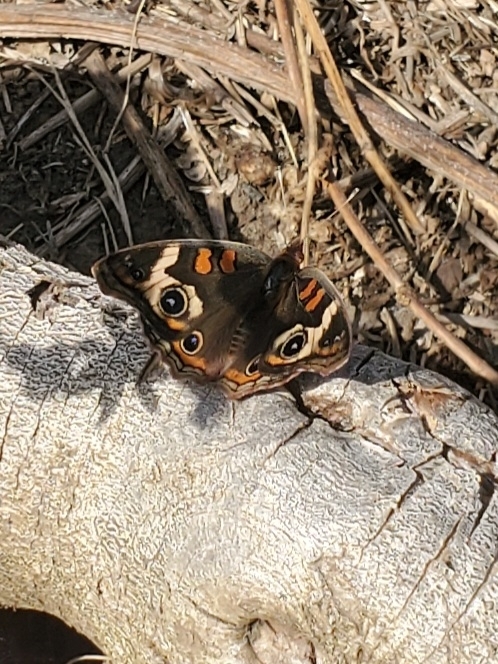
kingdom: Animalia
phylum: Arthropoda
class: Insecta
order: Lepidoptera
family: Nymphalidae
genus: Junonia
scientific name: Junonia coenia
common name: Common buckeye
